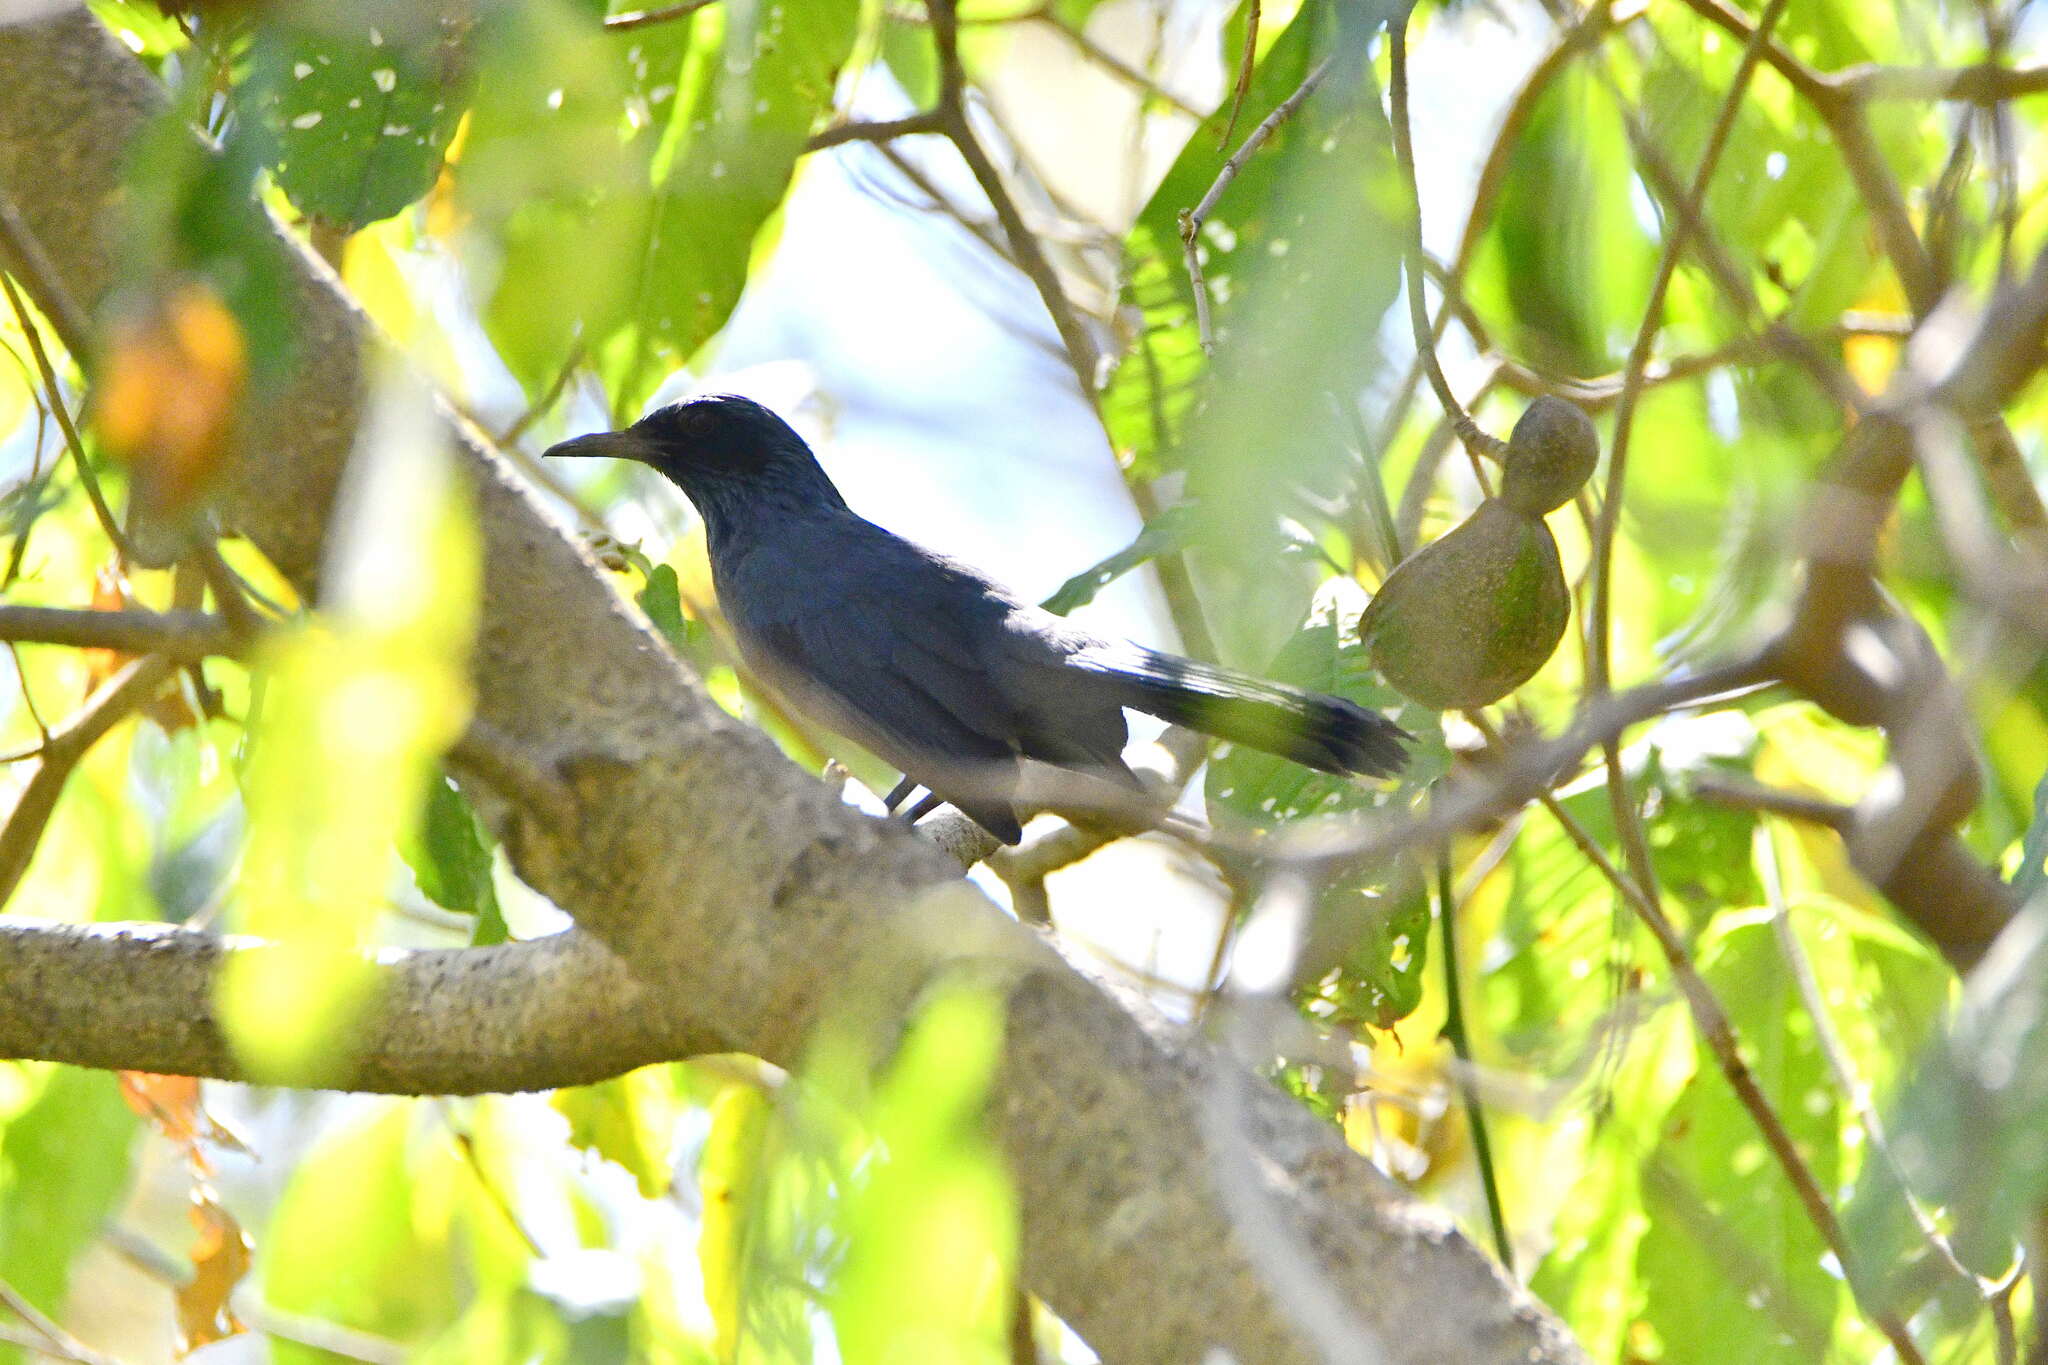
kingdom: Animalia
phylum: Chordata
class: Aves
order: Passeriformes
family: Mimidae
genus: Melanotis
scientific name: Melanotis caerulescens
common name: Blue mockingbird
